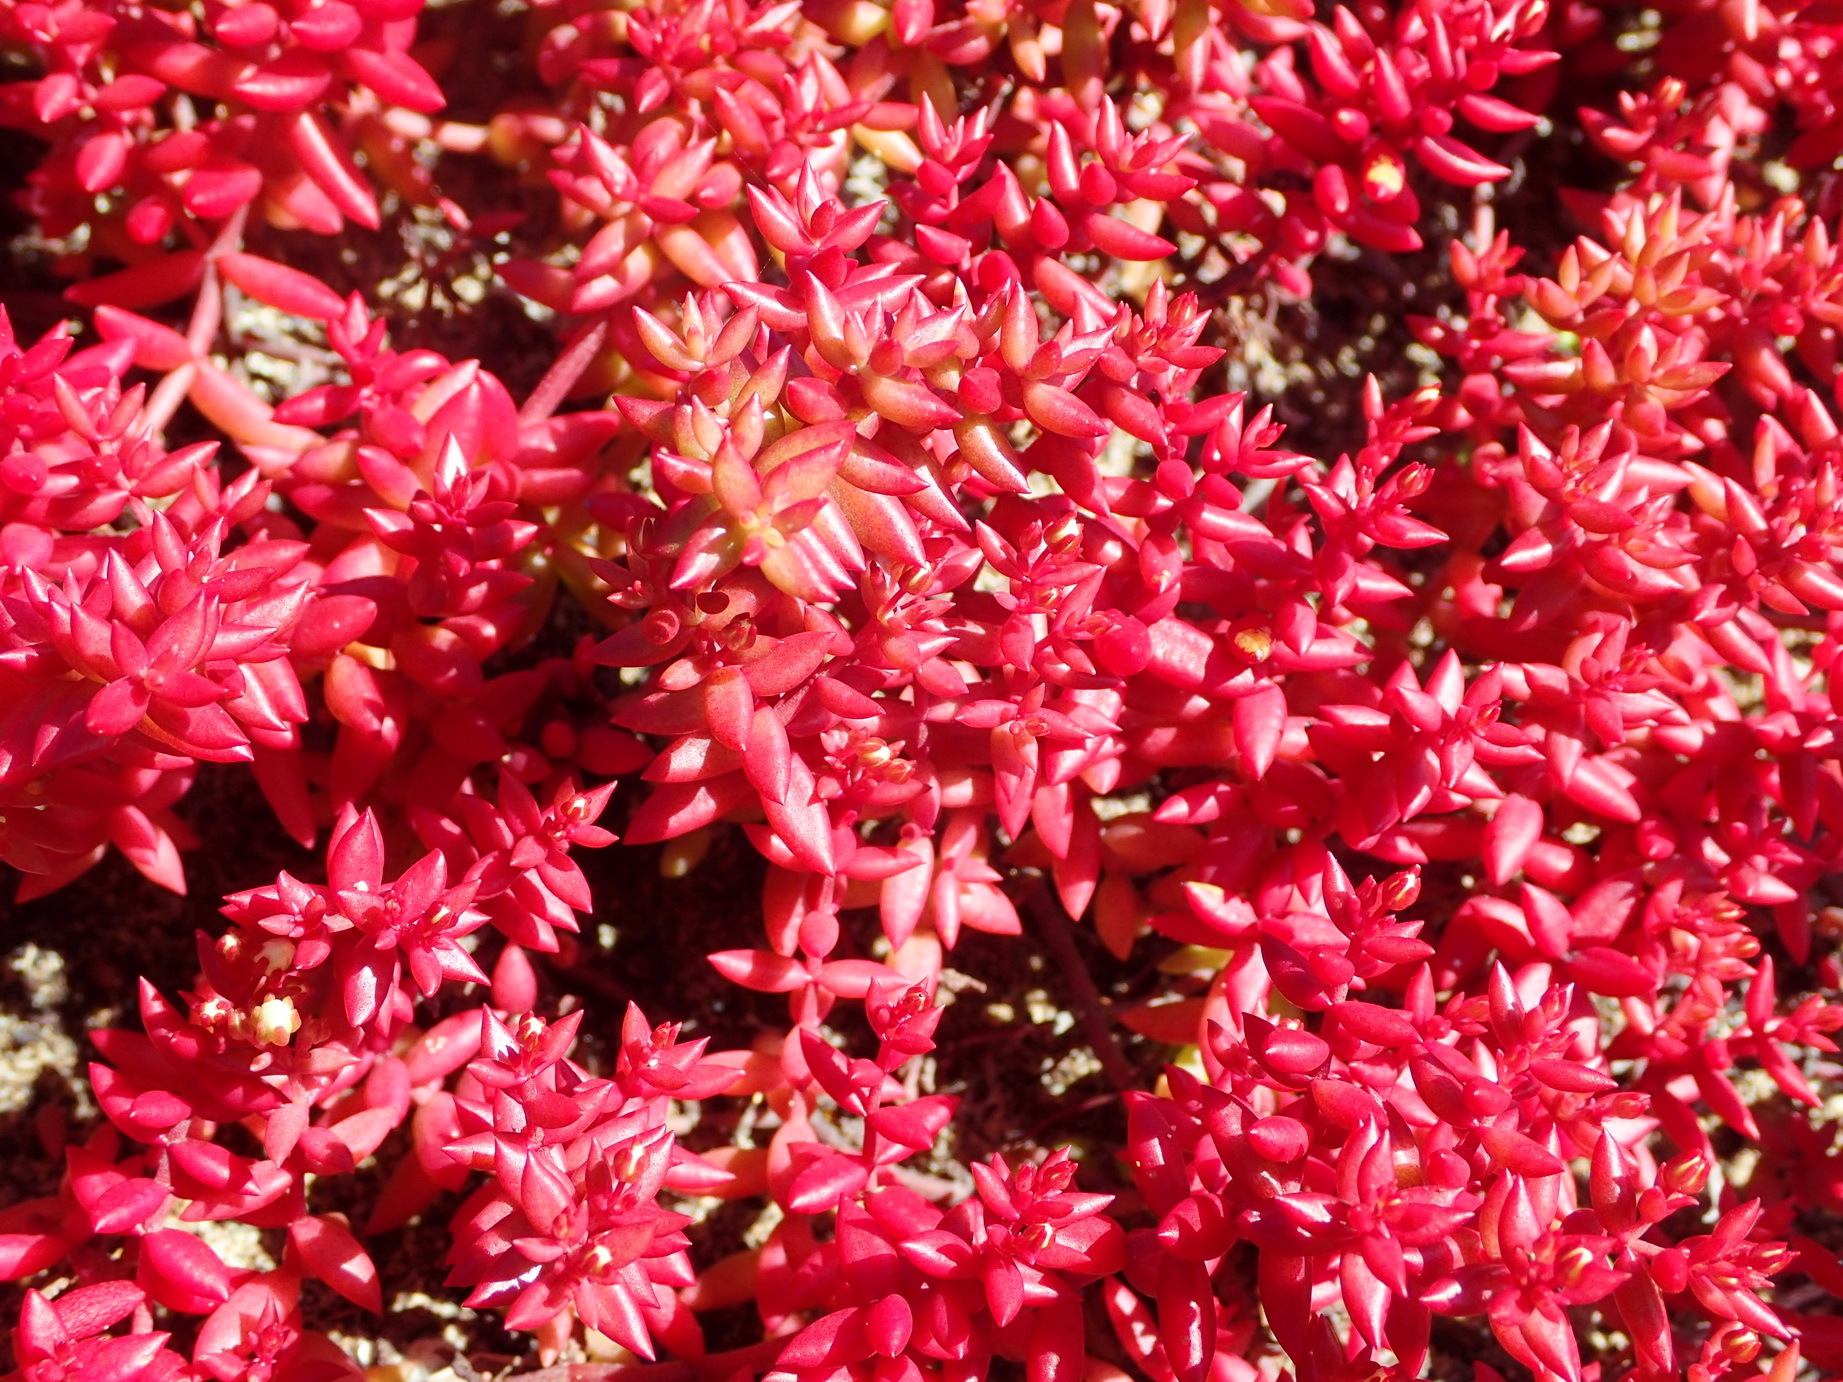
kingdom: Plantae
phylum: Tracheophyta
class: Magnoliopsida
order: Saxifragales
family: Crassulaceae
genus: Crassula
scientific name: Crassula expansa
